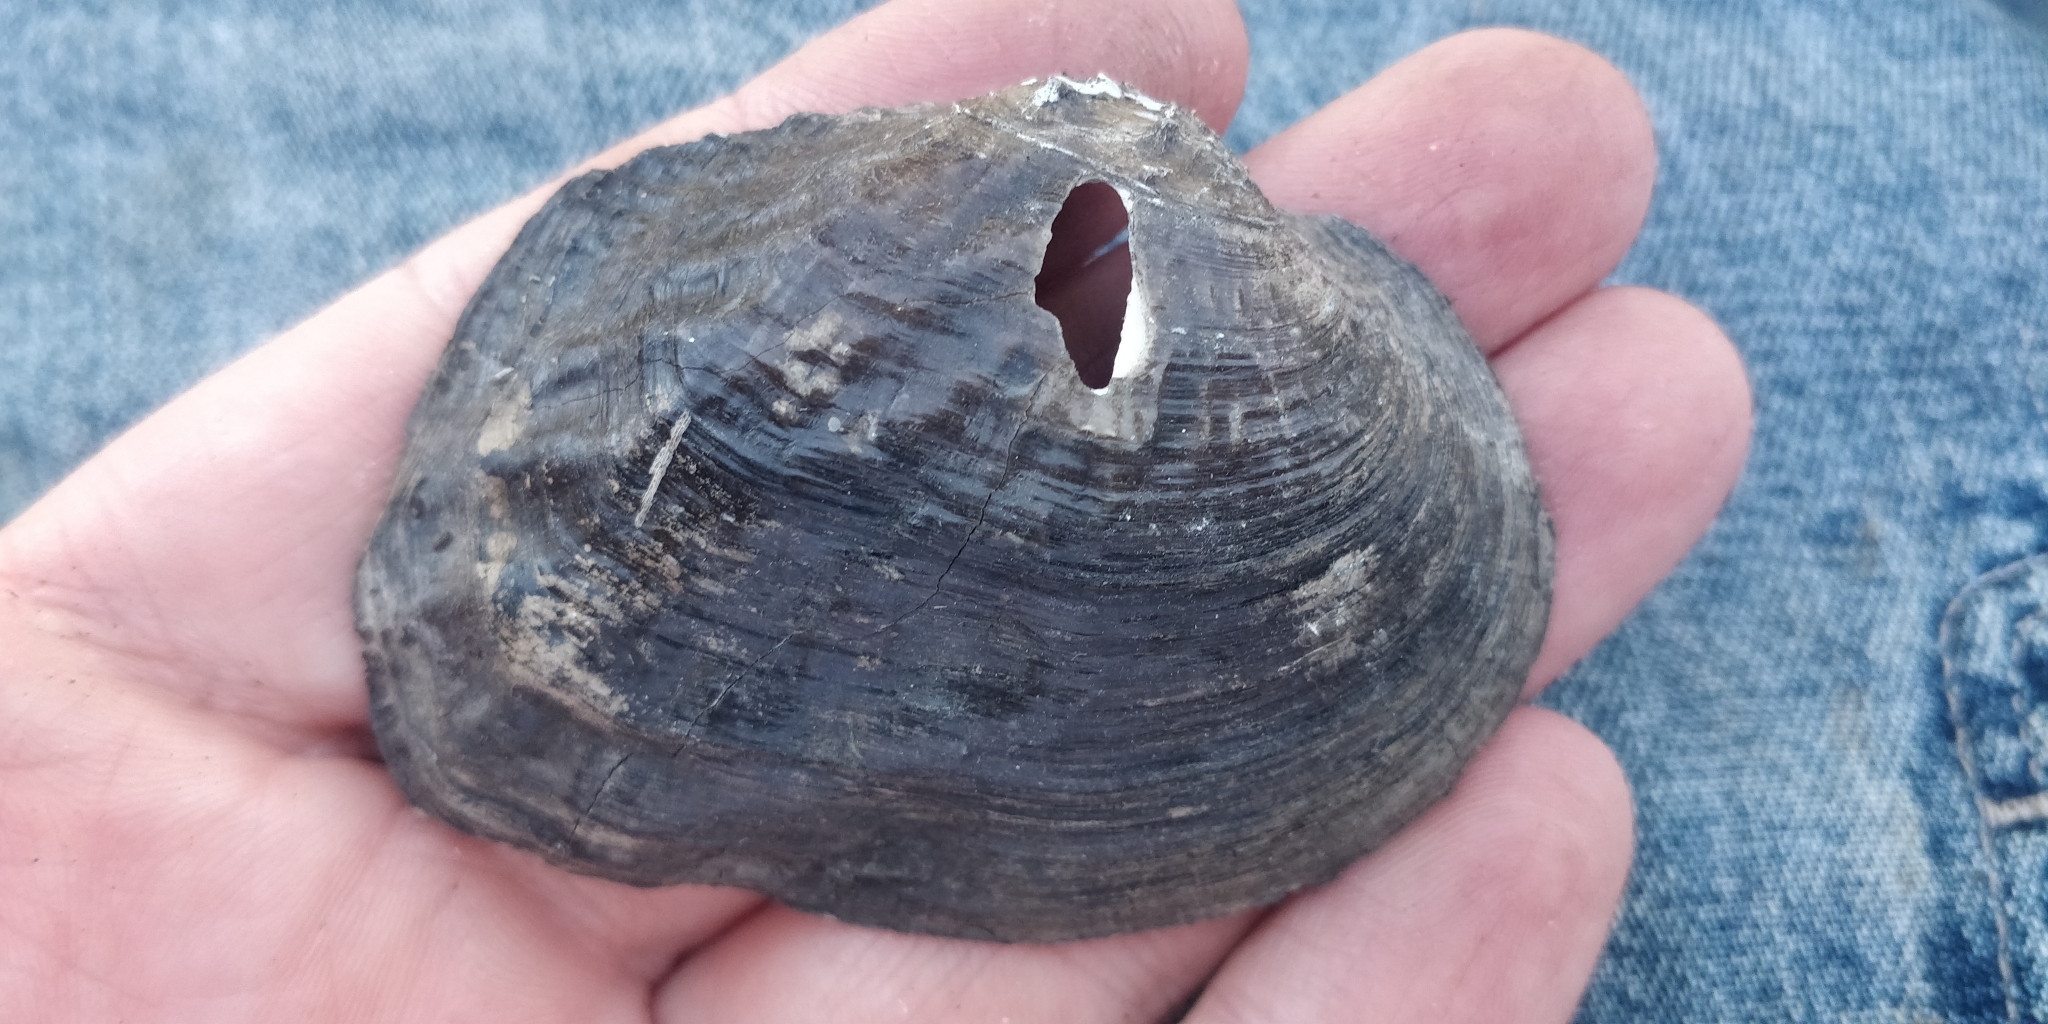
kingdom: Animalia
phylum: Mollusca
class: Bivalvia
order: Unionida
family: Unionidae
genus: Arcidens
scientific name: Arcidens confragosus
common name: Rock pocketbook
